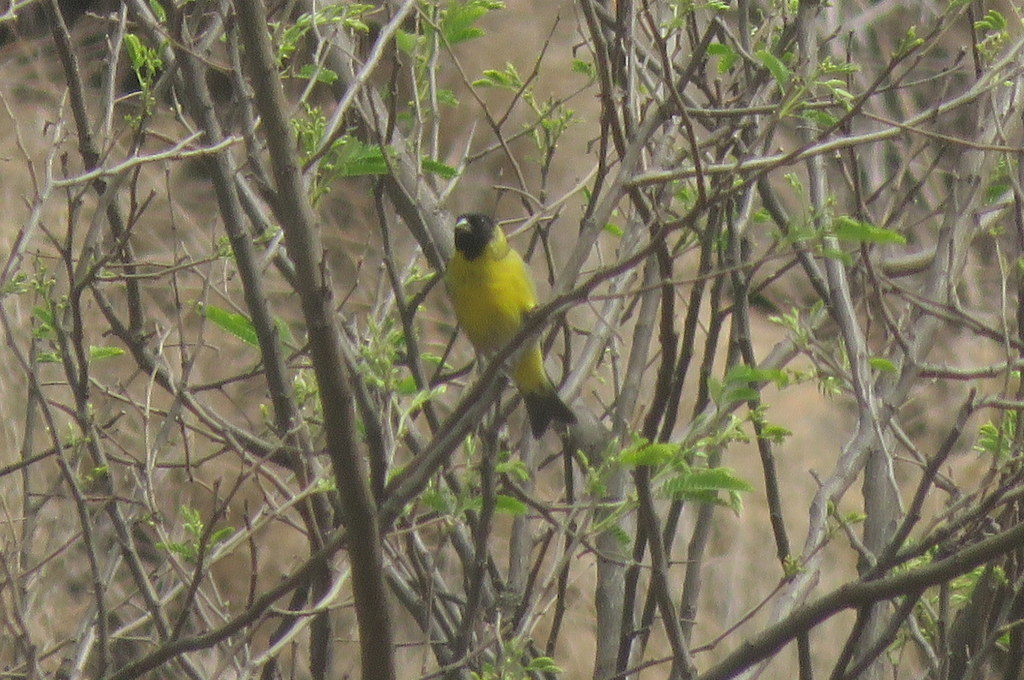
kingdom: Animalia
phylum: Chordata
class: Aves
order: Passeriformes
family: Fringillidae
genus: Spinus
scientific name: Spinus magellanicus
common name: Hooded siskin
